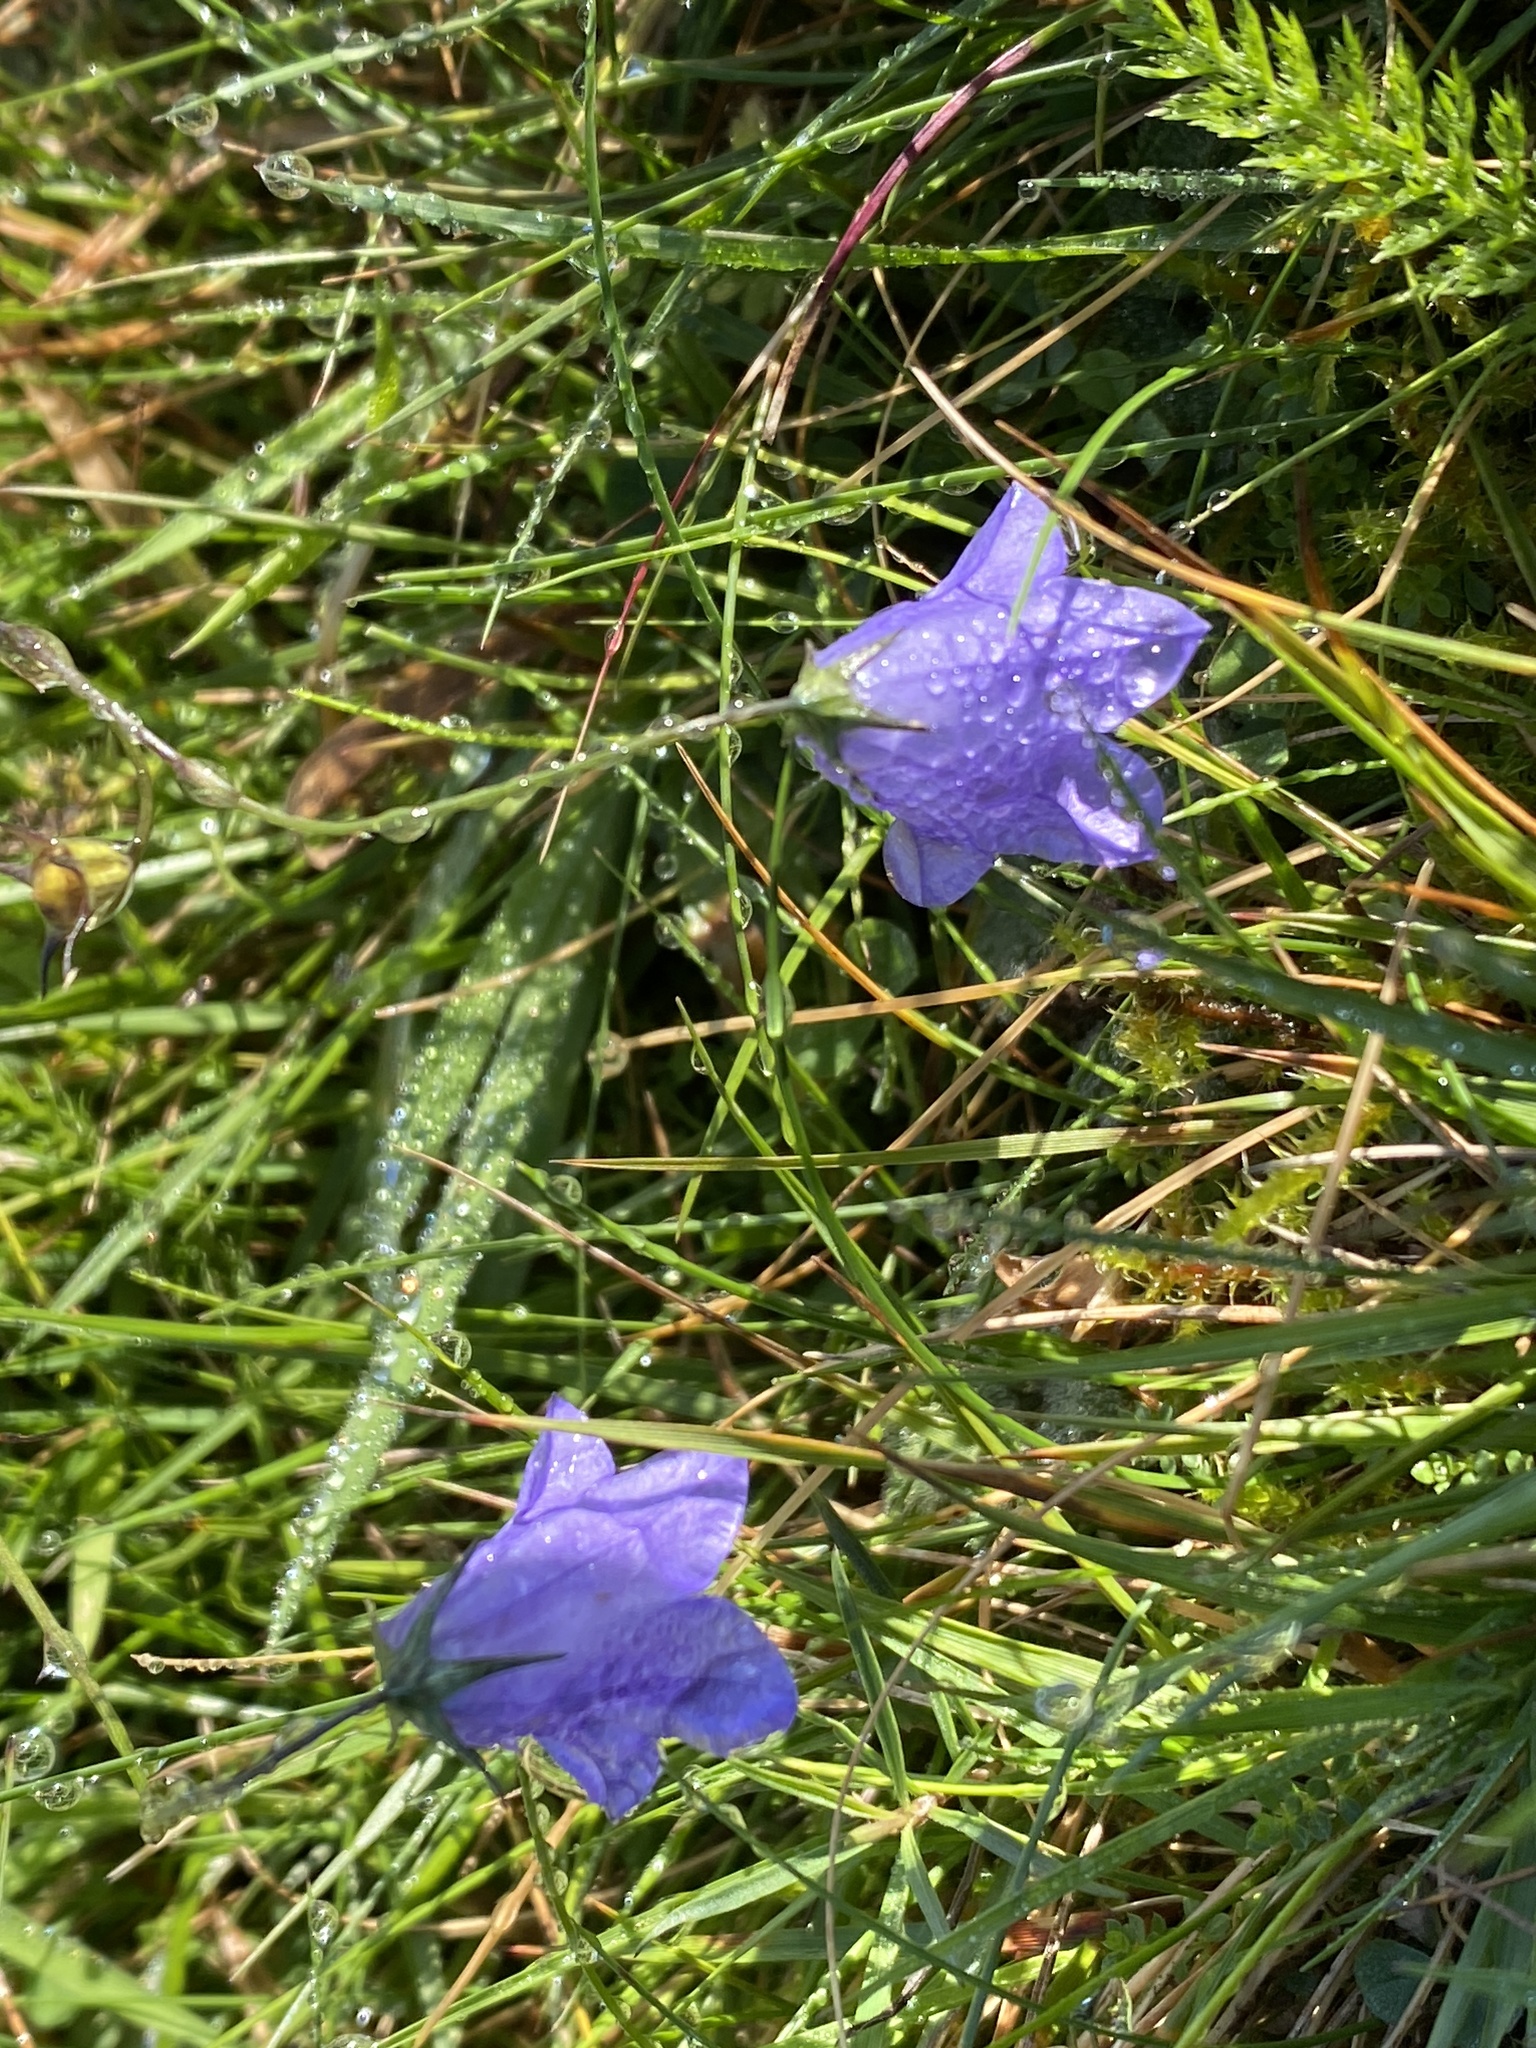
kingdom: Plantae
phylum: Tracheophyta
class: Magnoliopsida
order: Asterales
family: Campanulaceae
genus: Campanula
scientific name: Campanula rotundifolia
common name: Harebell
